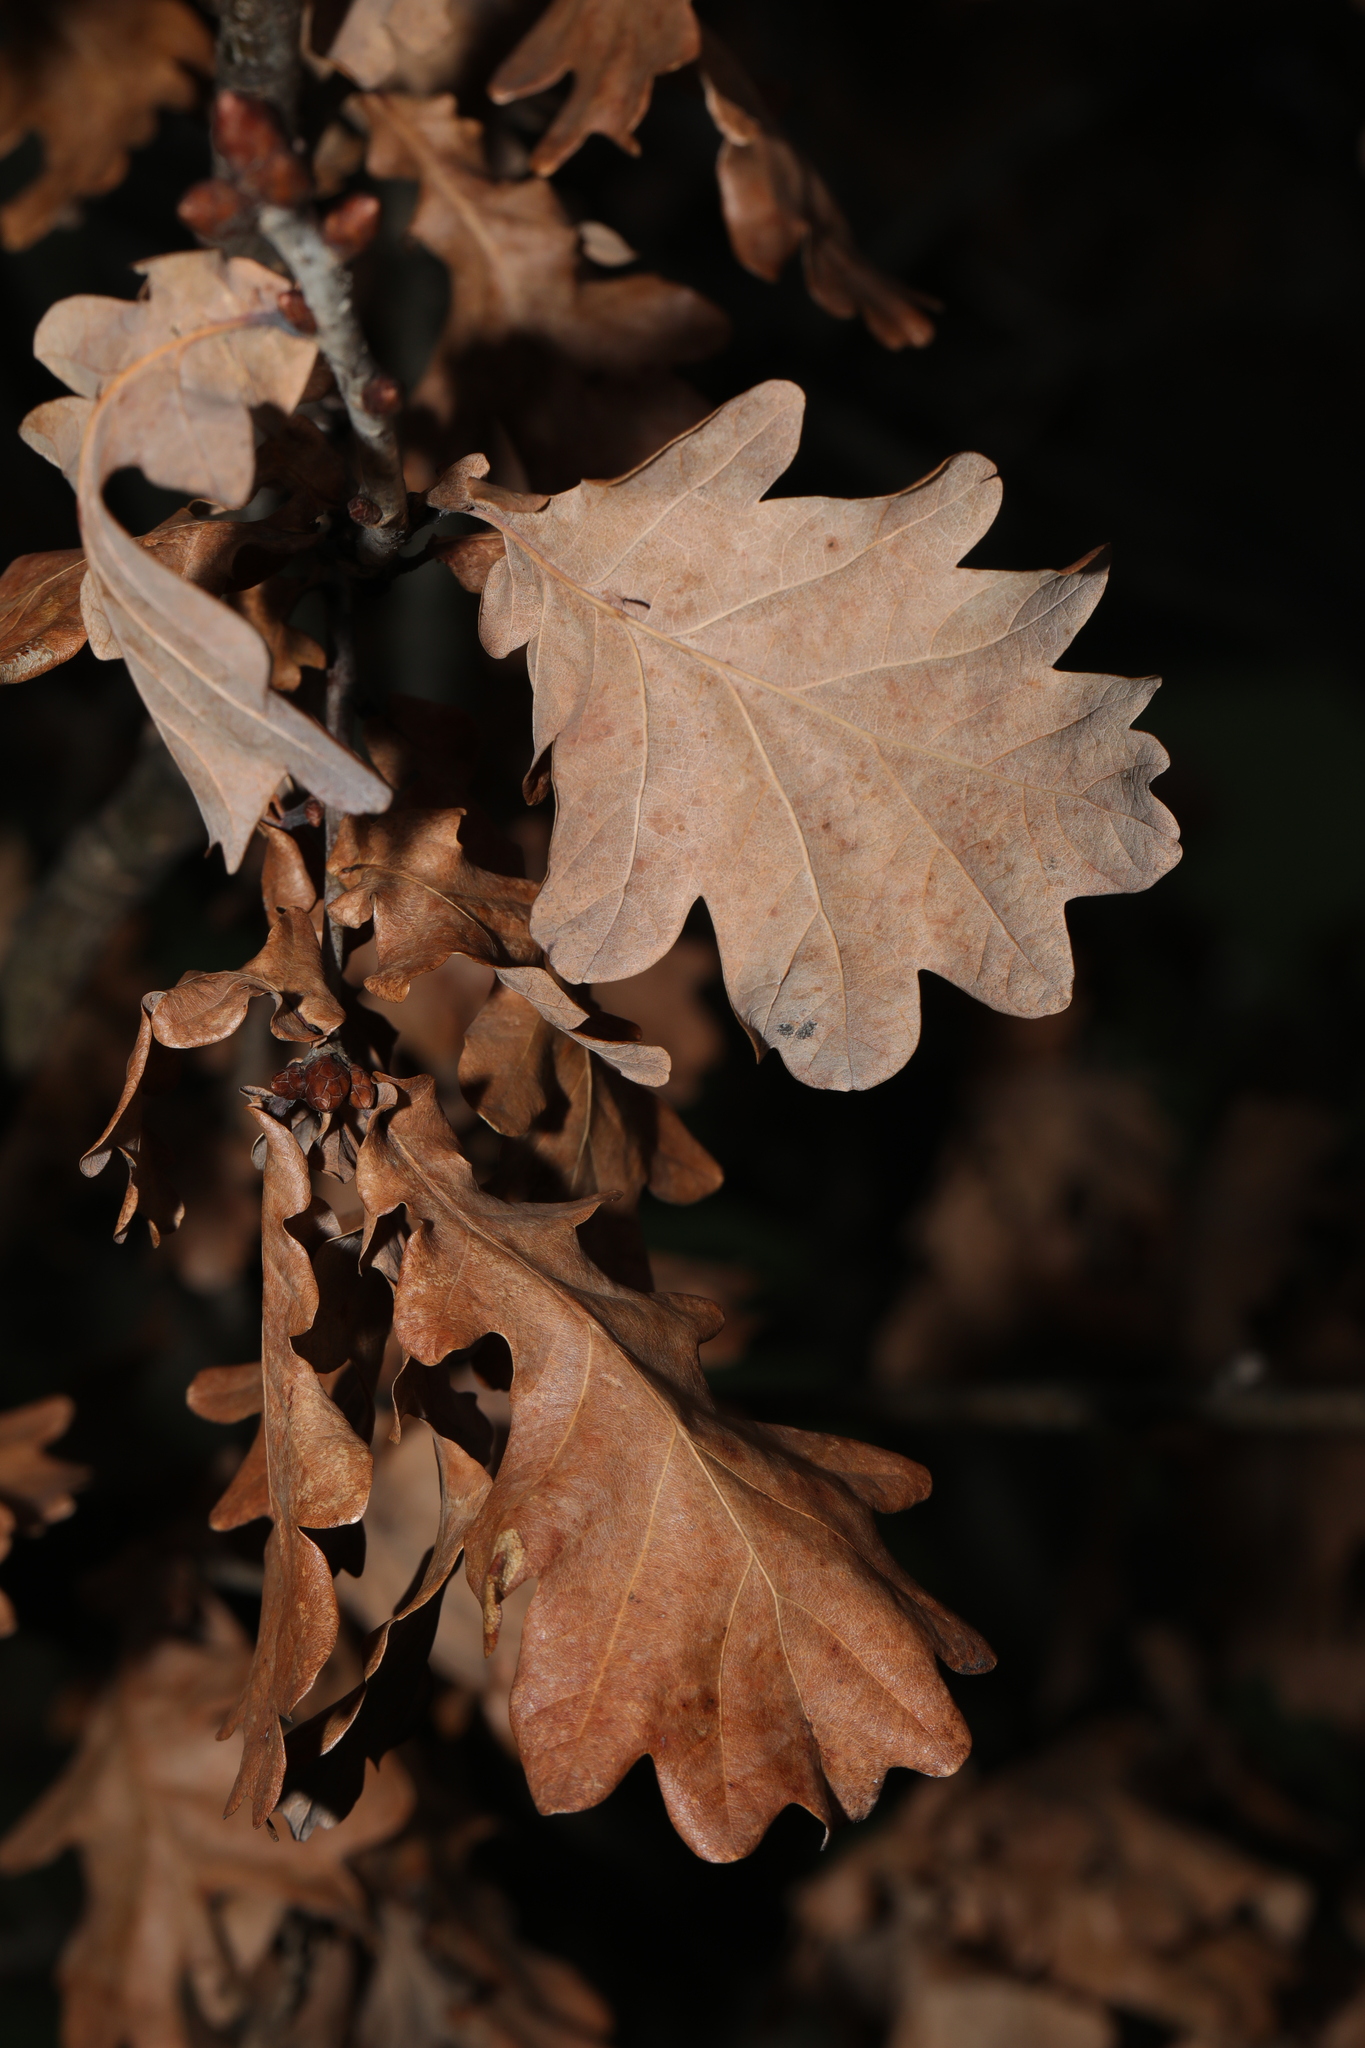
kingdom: Plantae
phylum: Tracheophyta
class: Magnoliopsida
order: Fagales
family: Fagaceae
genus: Quercus
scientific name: Quercus robur
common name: Pedunculate oak
